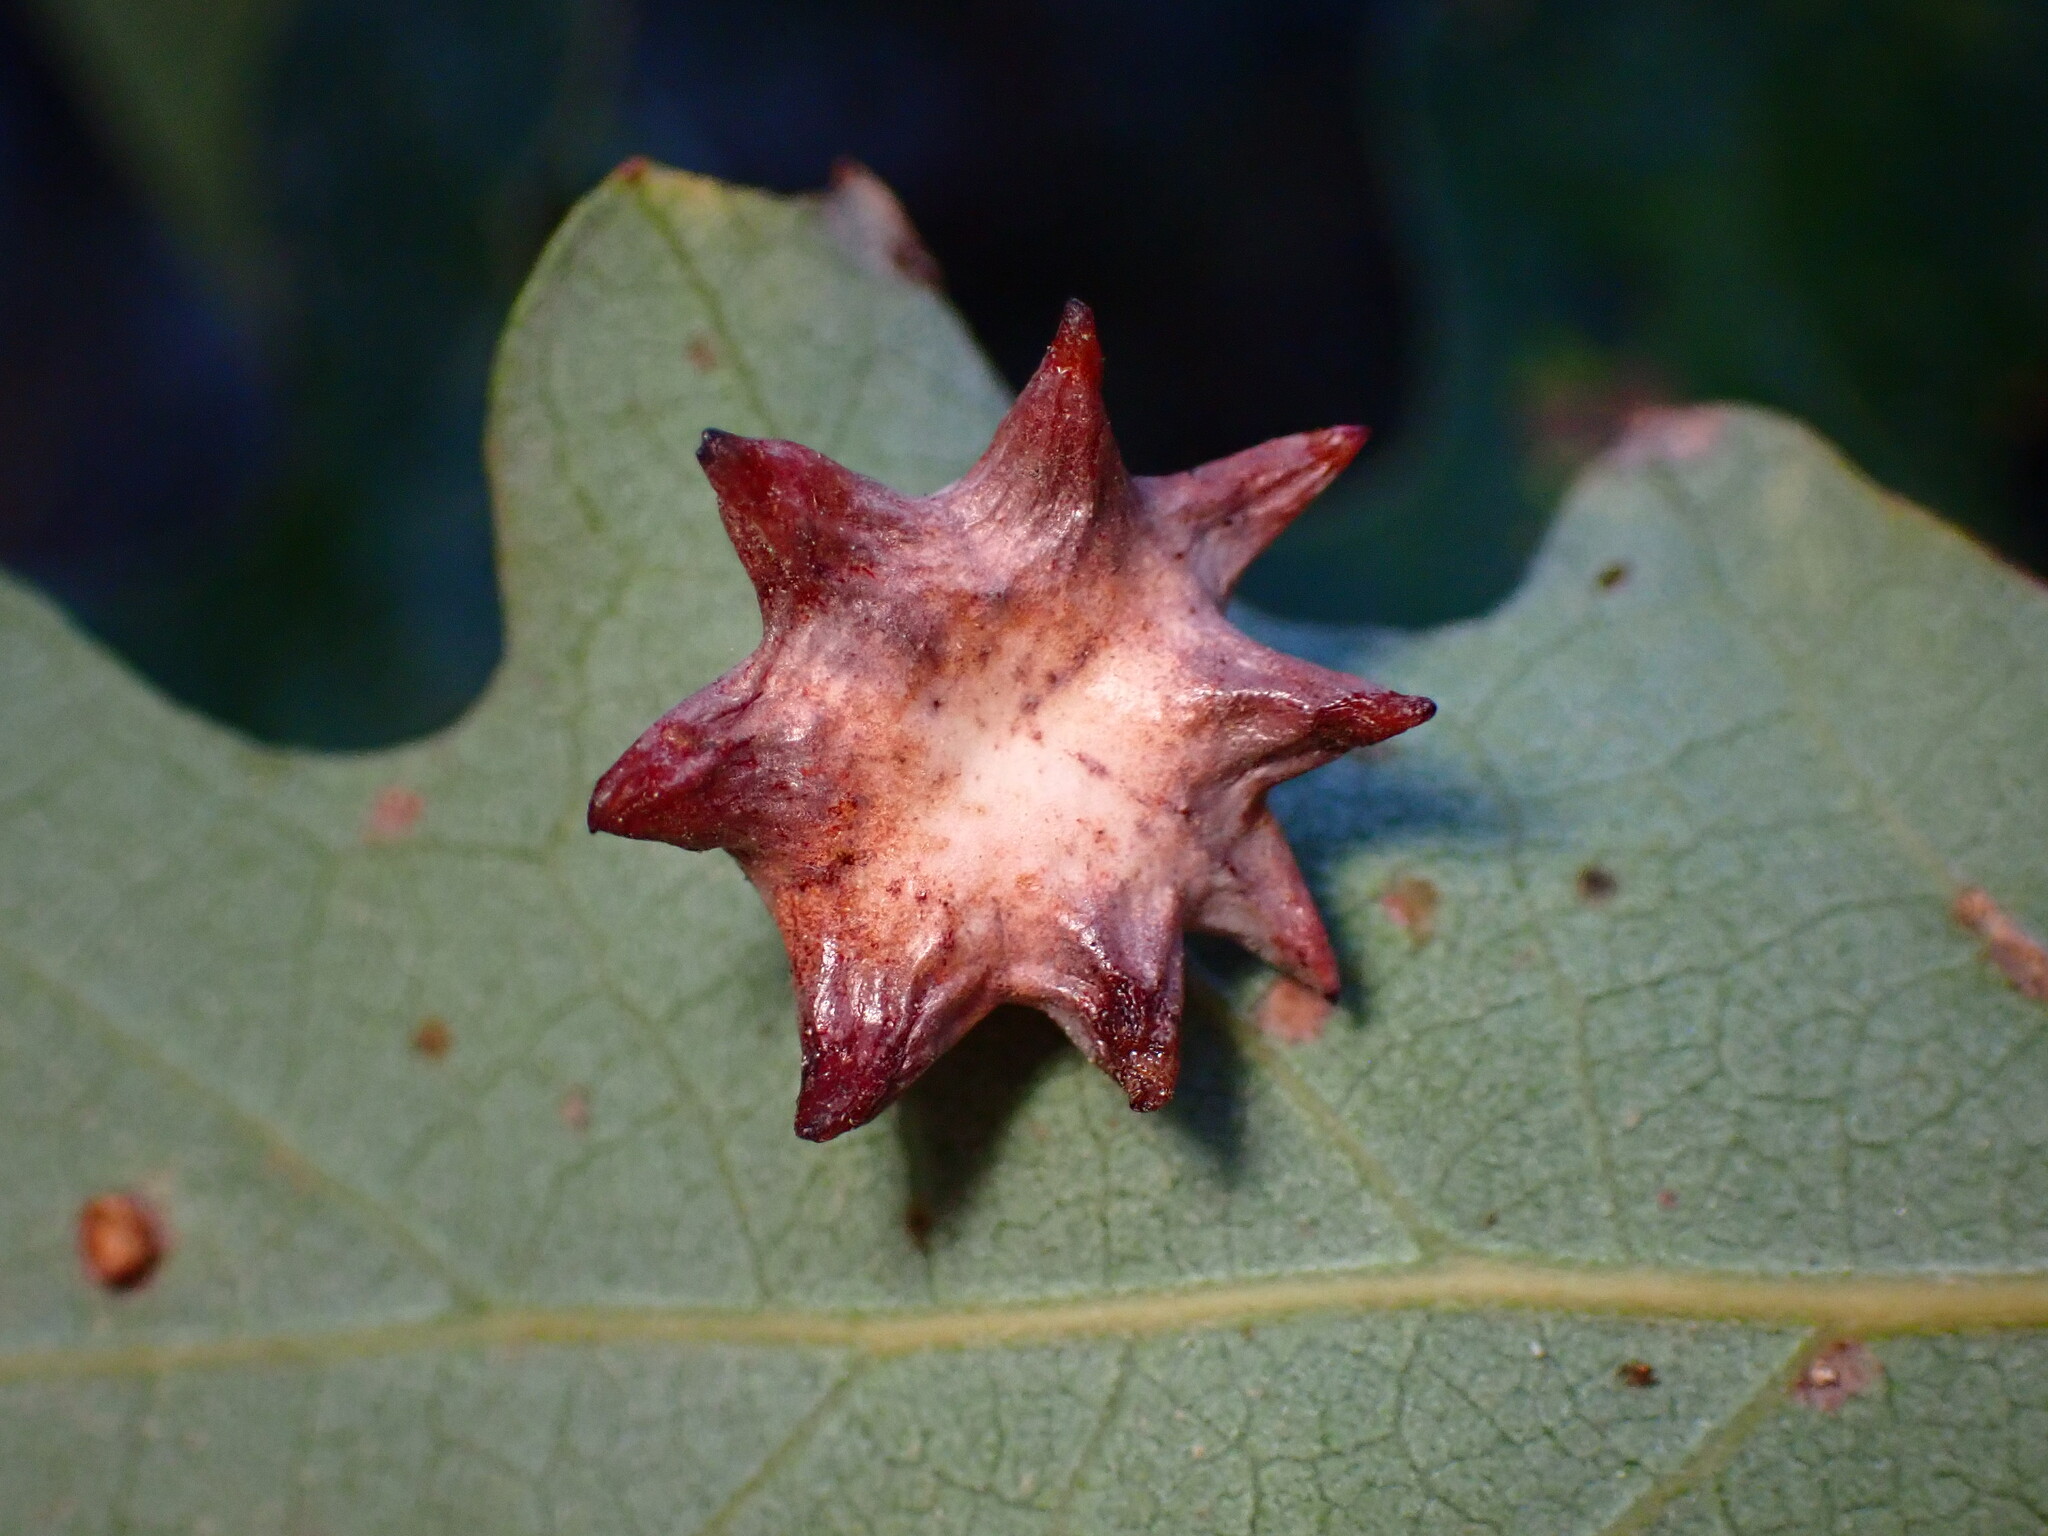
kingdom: Animalia
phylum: Arthropoda
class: Insecta
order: Hymenoptera
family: Cynipidae
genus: Cynips
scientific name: Cynips douglasi
